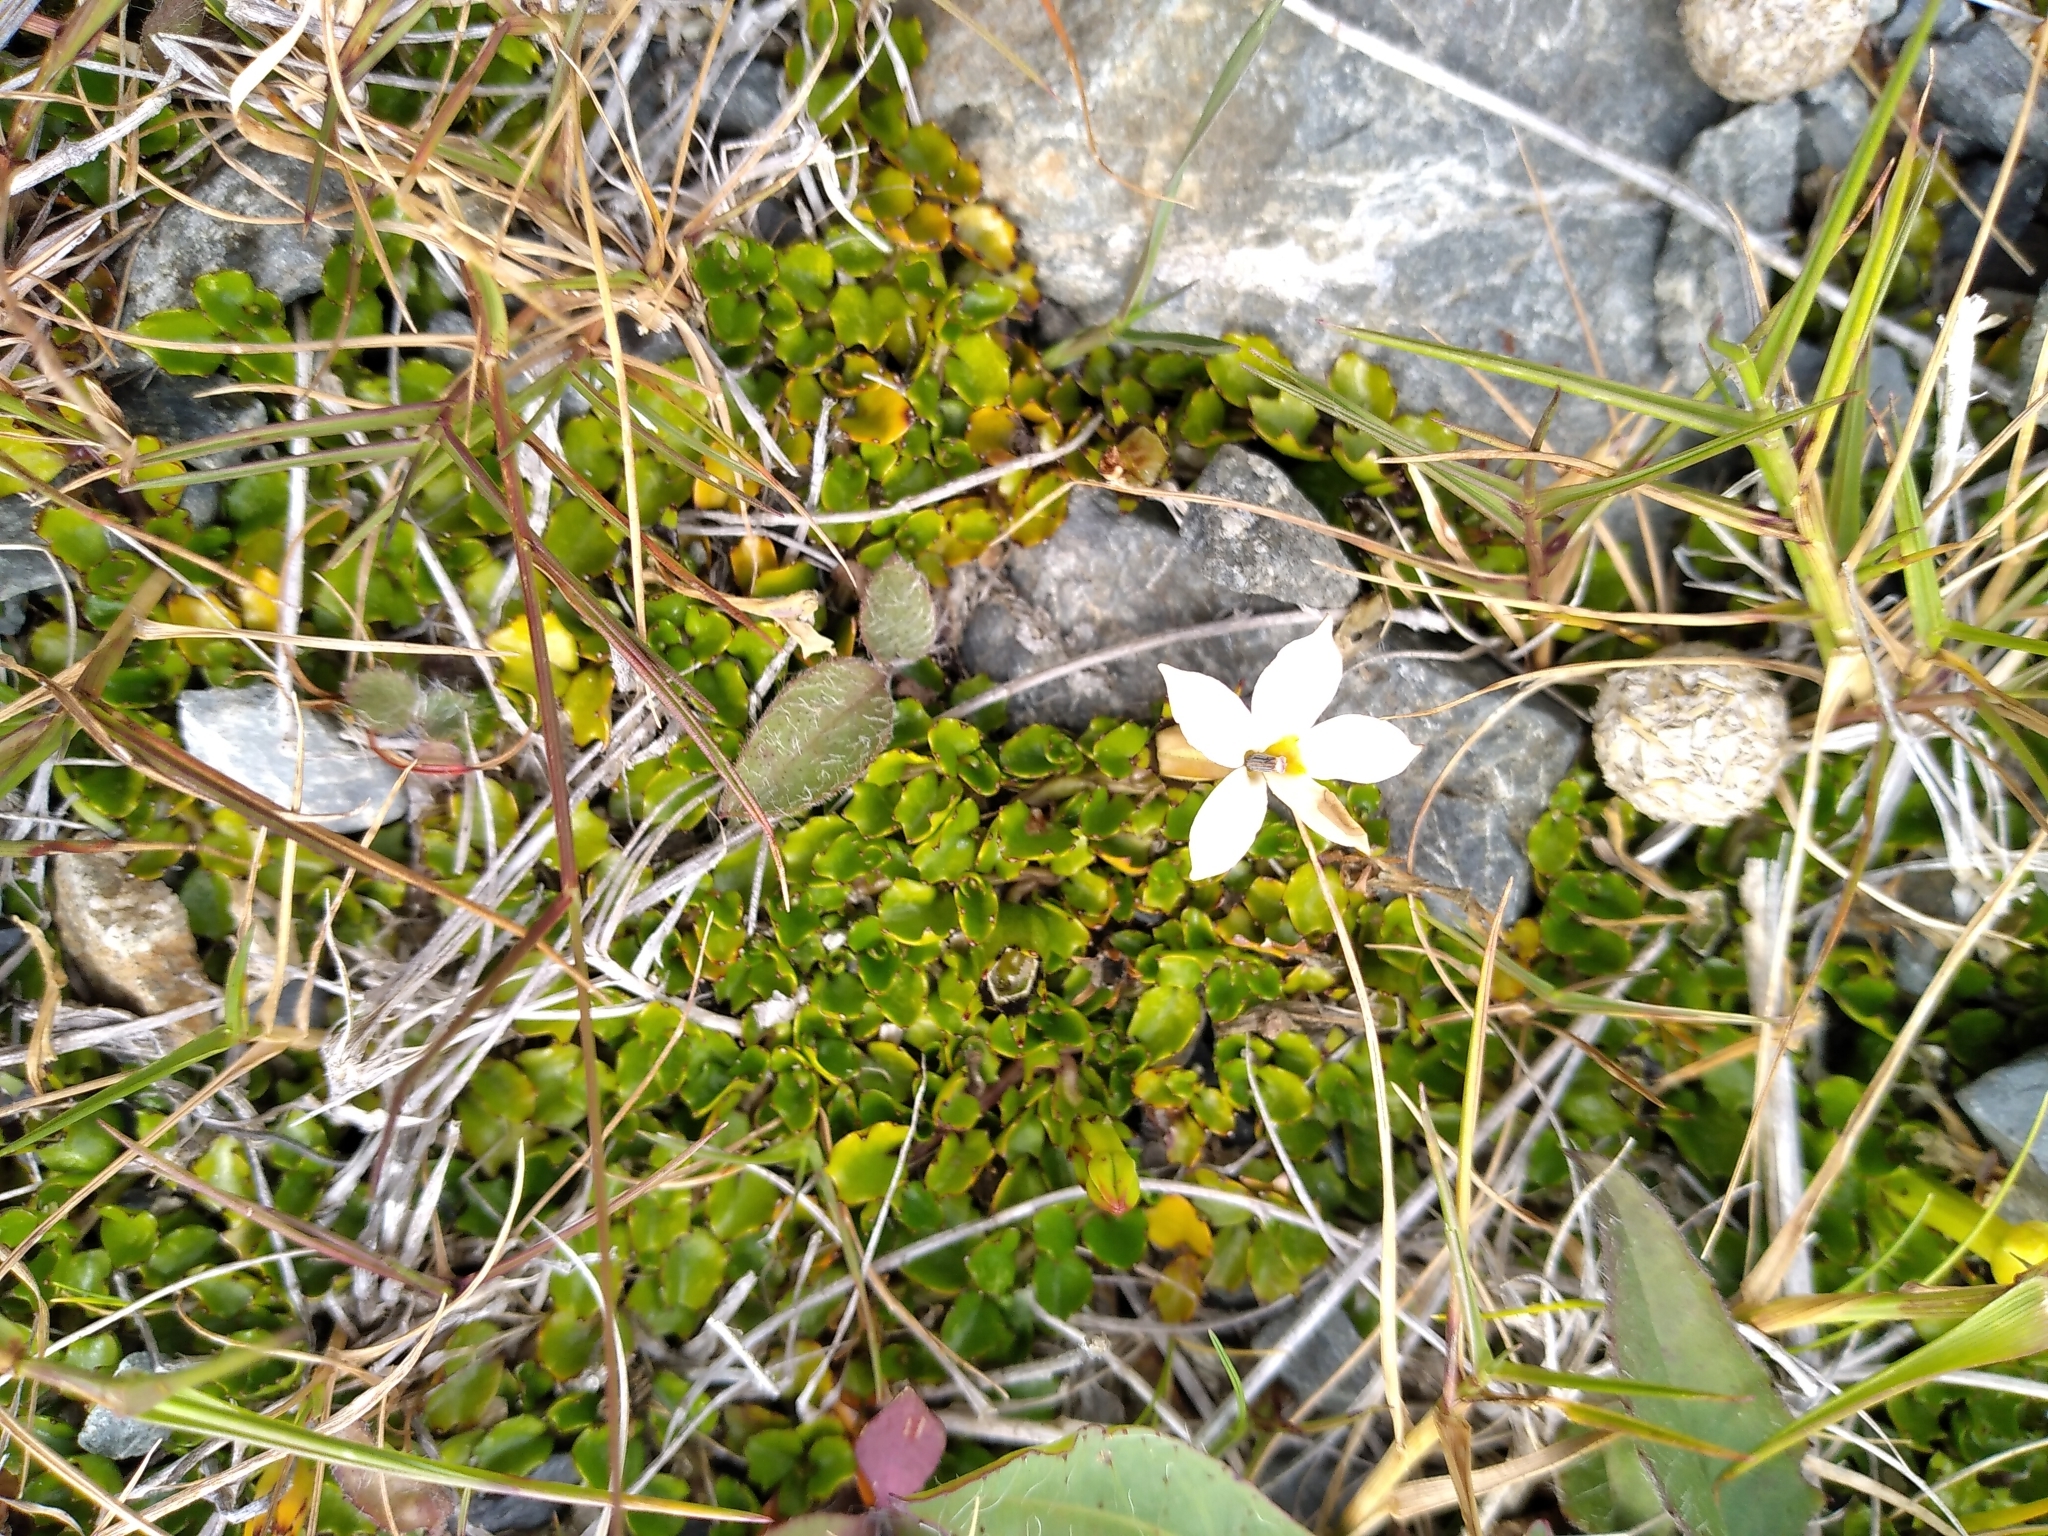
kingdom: Plantae
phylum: Tracheophyta
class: Magnoliopsida
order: Asterales
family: Campanulaceae
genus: Lobelia
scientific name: Lobelia macrodon
